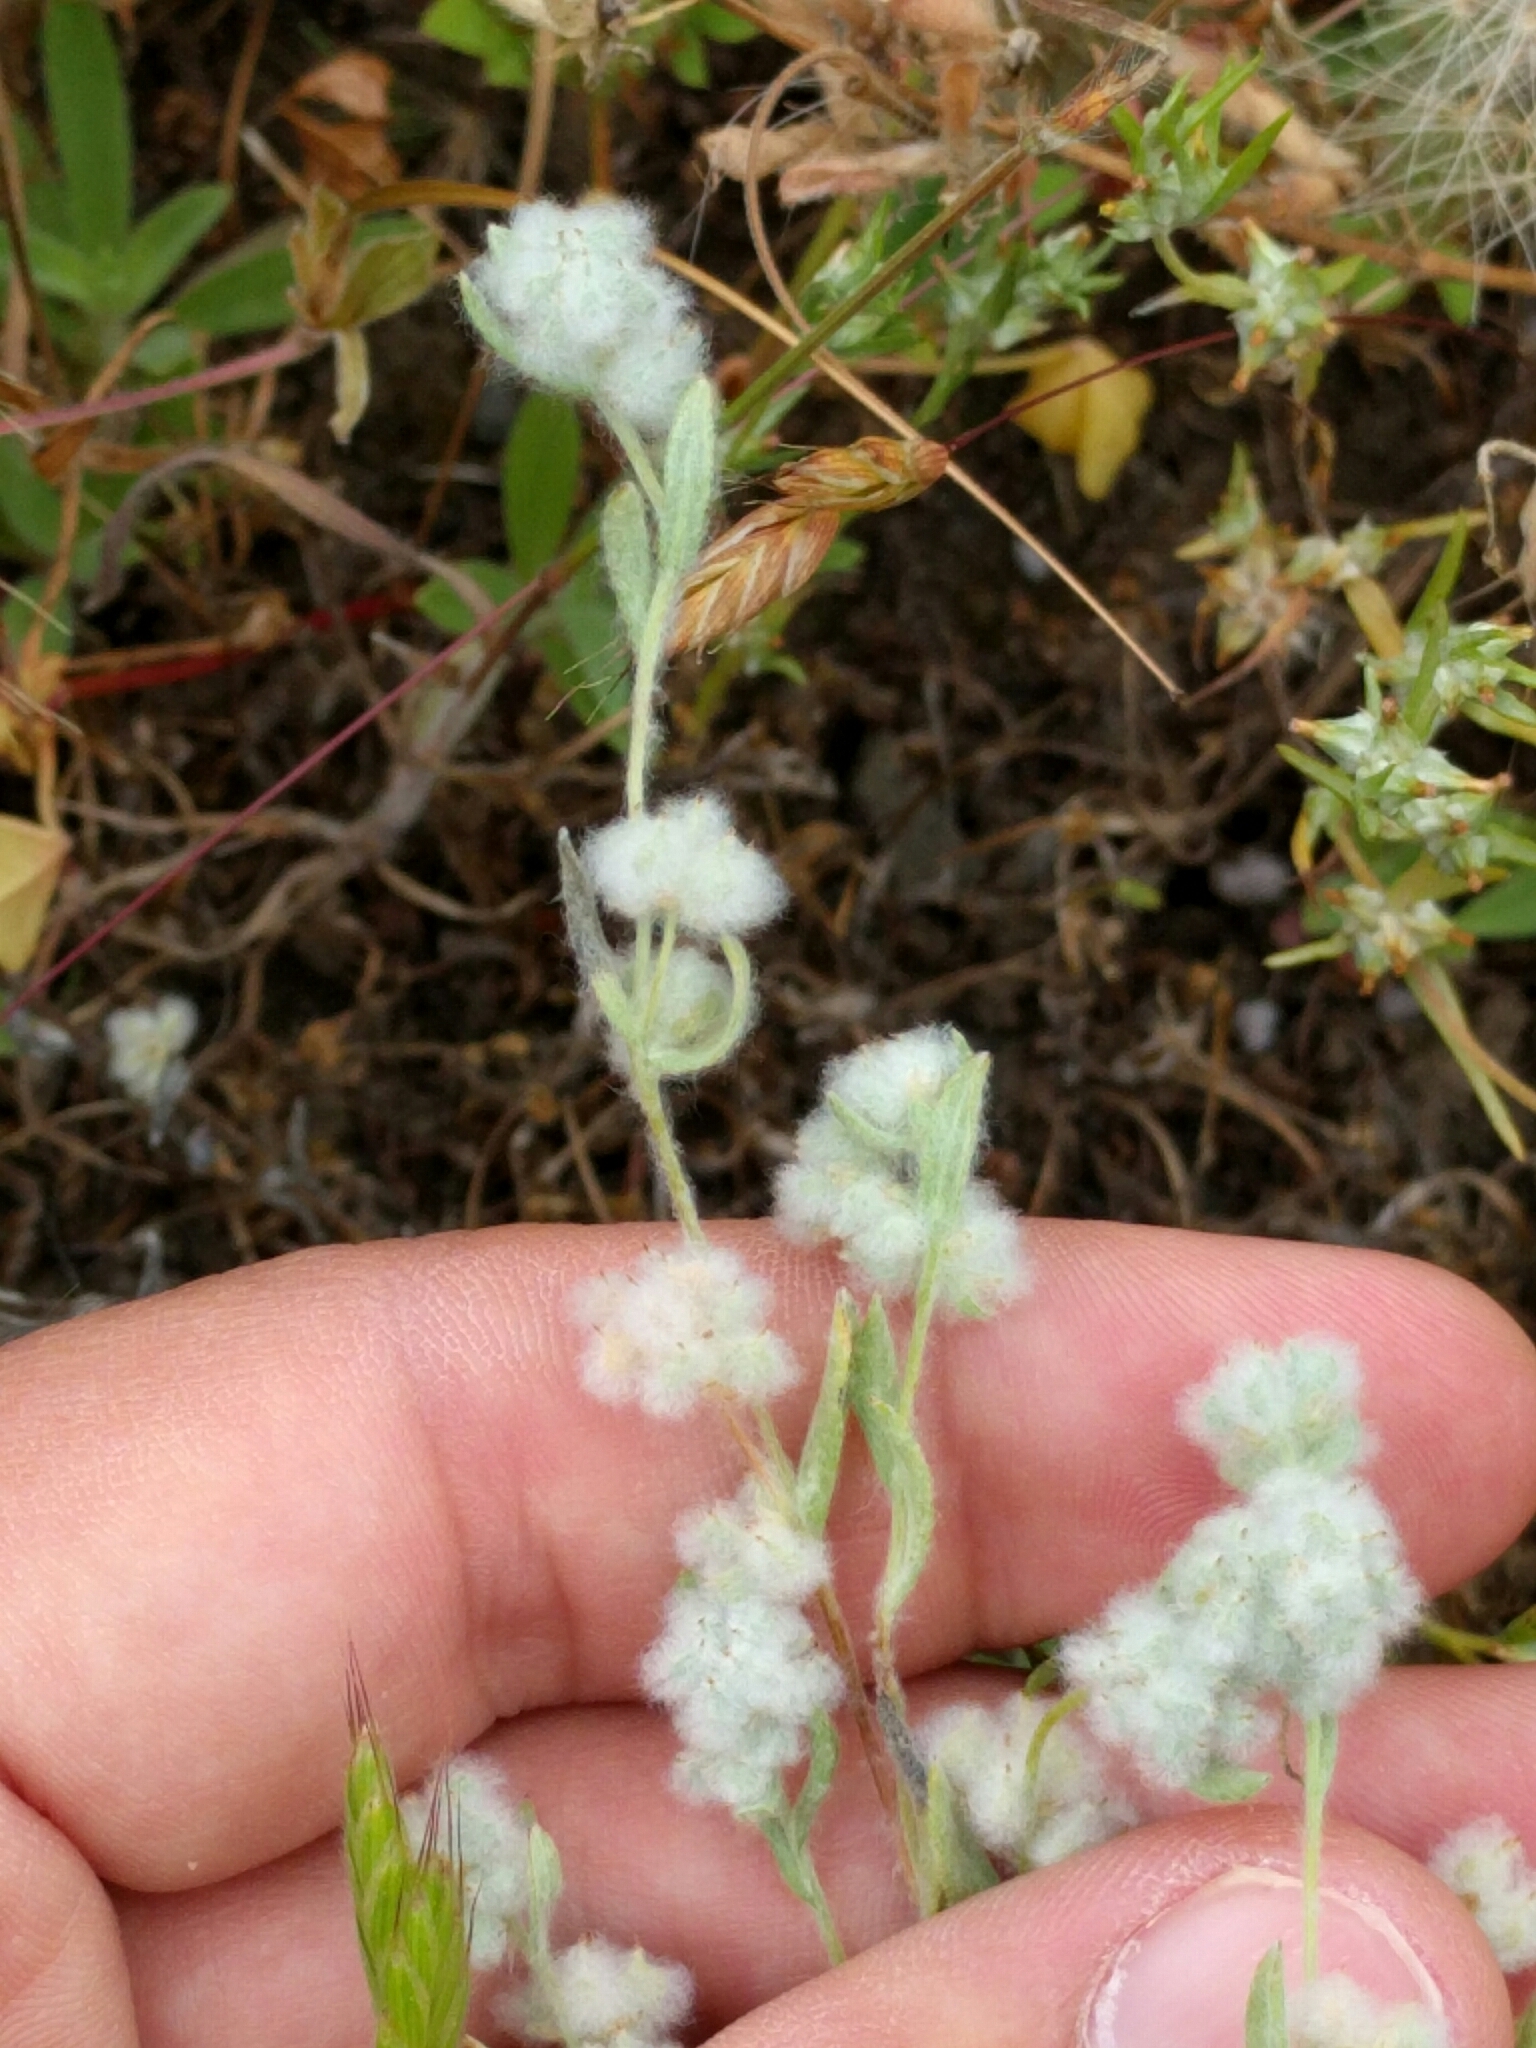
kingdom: Plantae
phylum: Tracheophyta
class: Magnoliopsida
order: Asterales
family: Asteraceae
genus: Bombycilaena
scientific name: Bombycilaena californica
